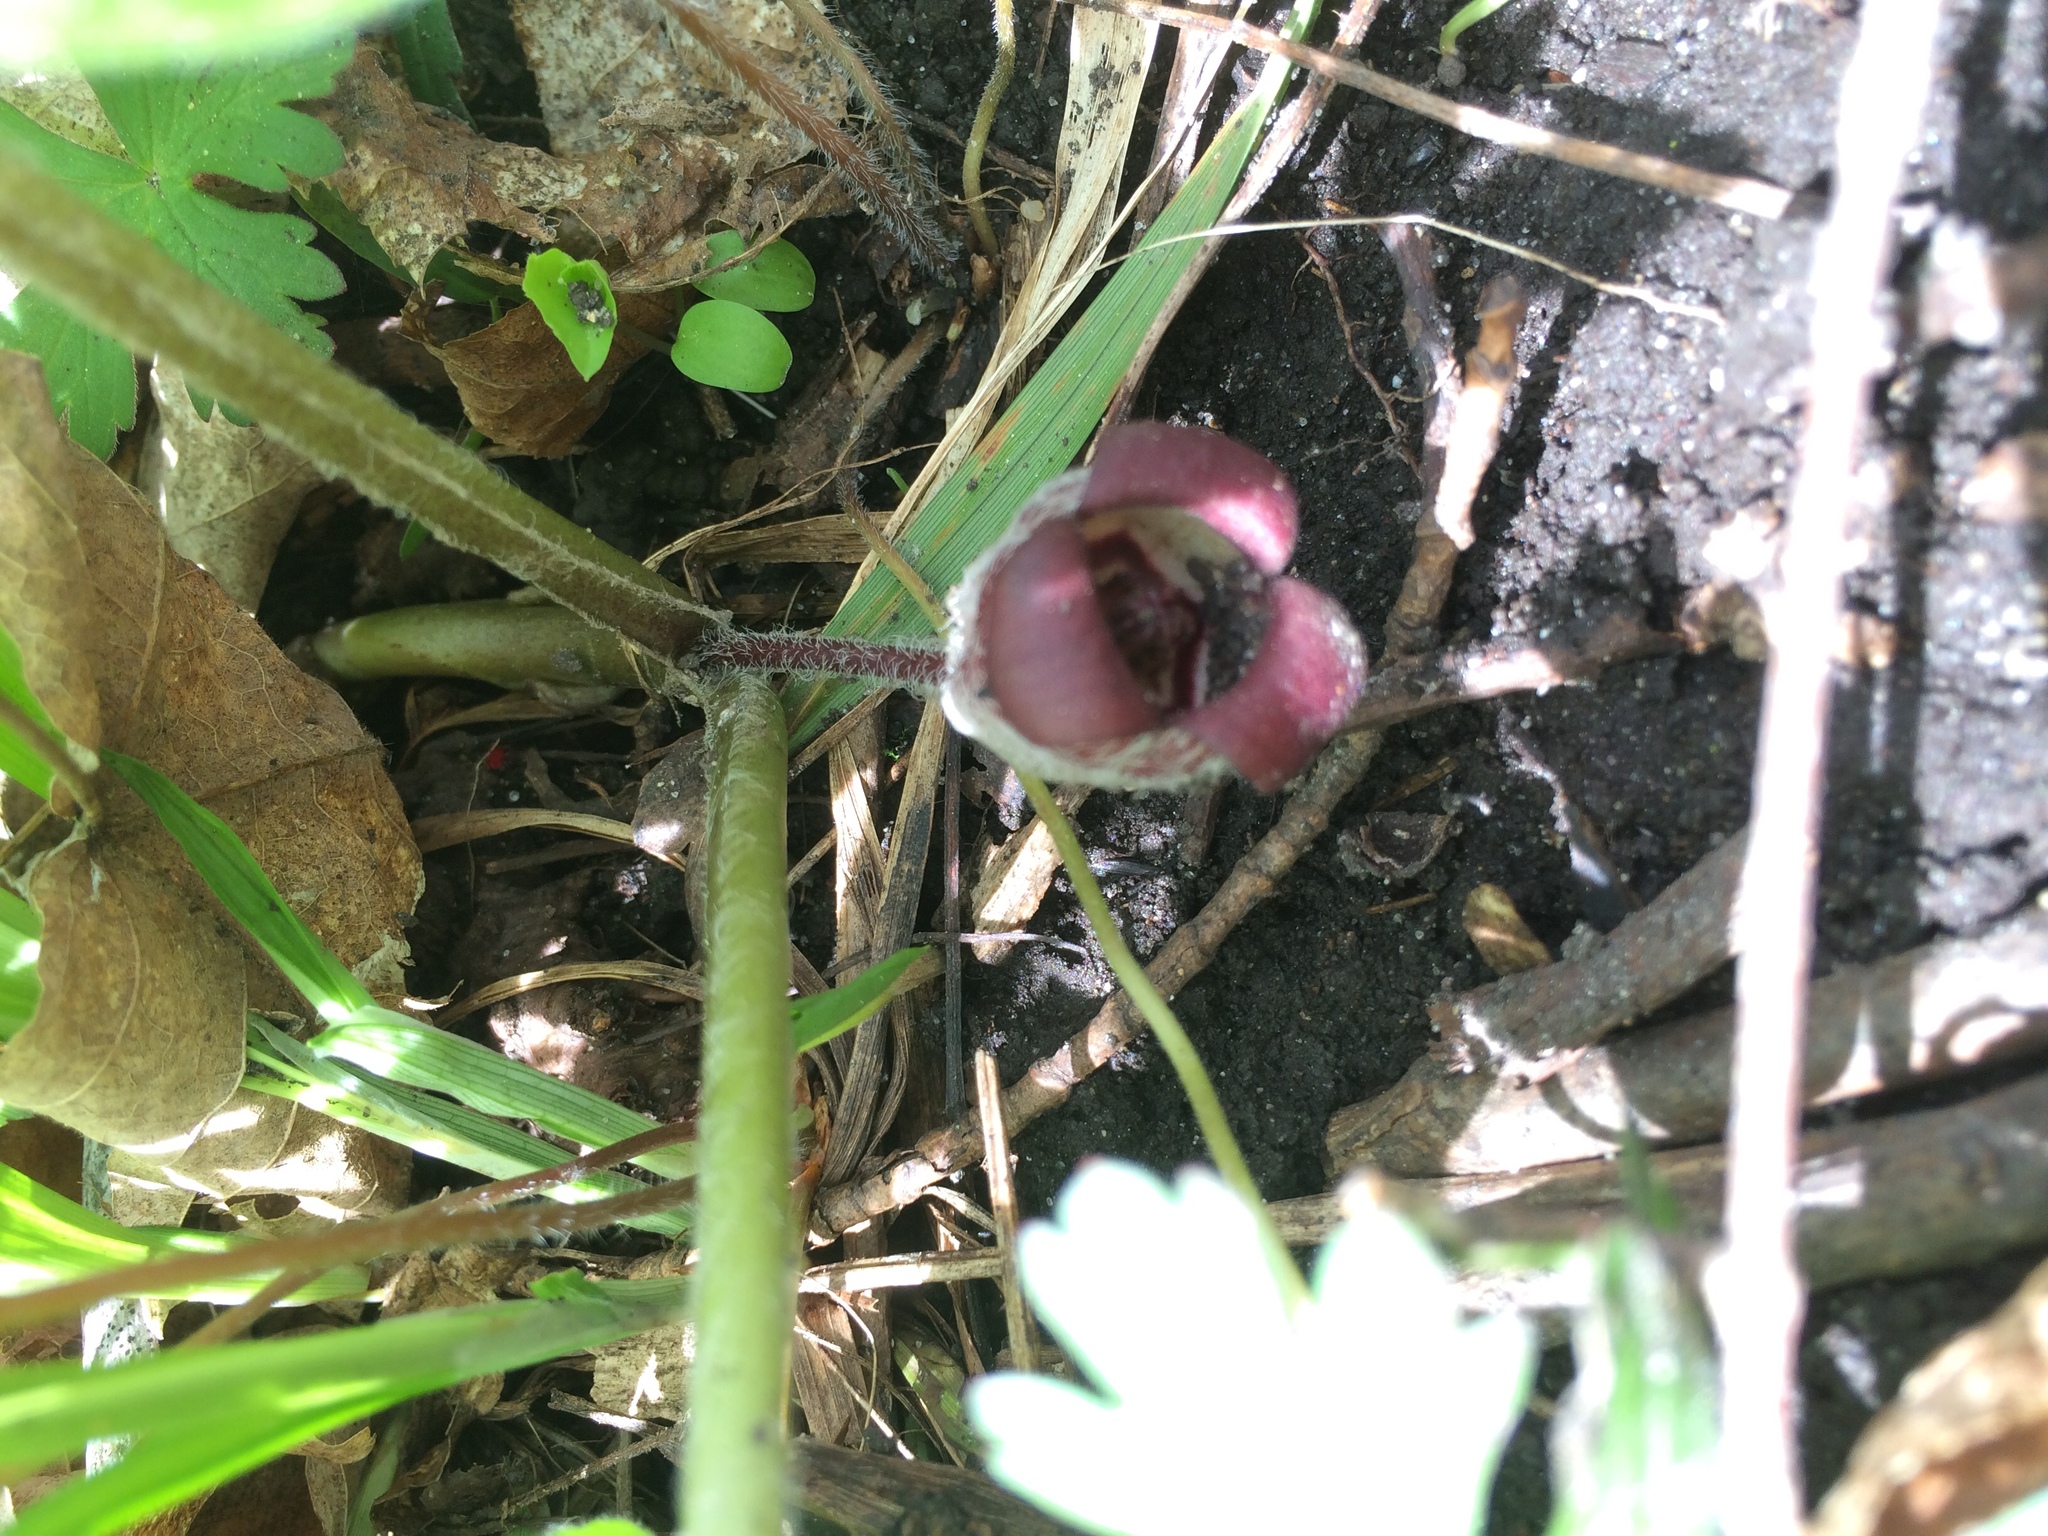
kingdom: Plantae
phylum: Tracheophyta
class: Magnoliopsida
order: Piperales
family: Aristolochiaceae
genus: Asarum
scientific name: Asarum canadense
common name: Wild ginger
